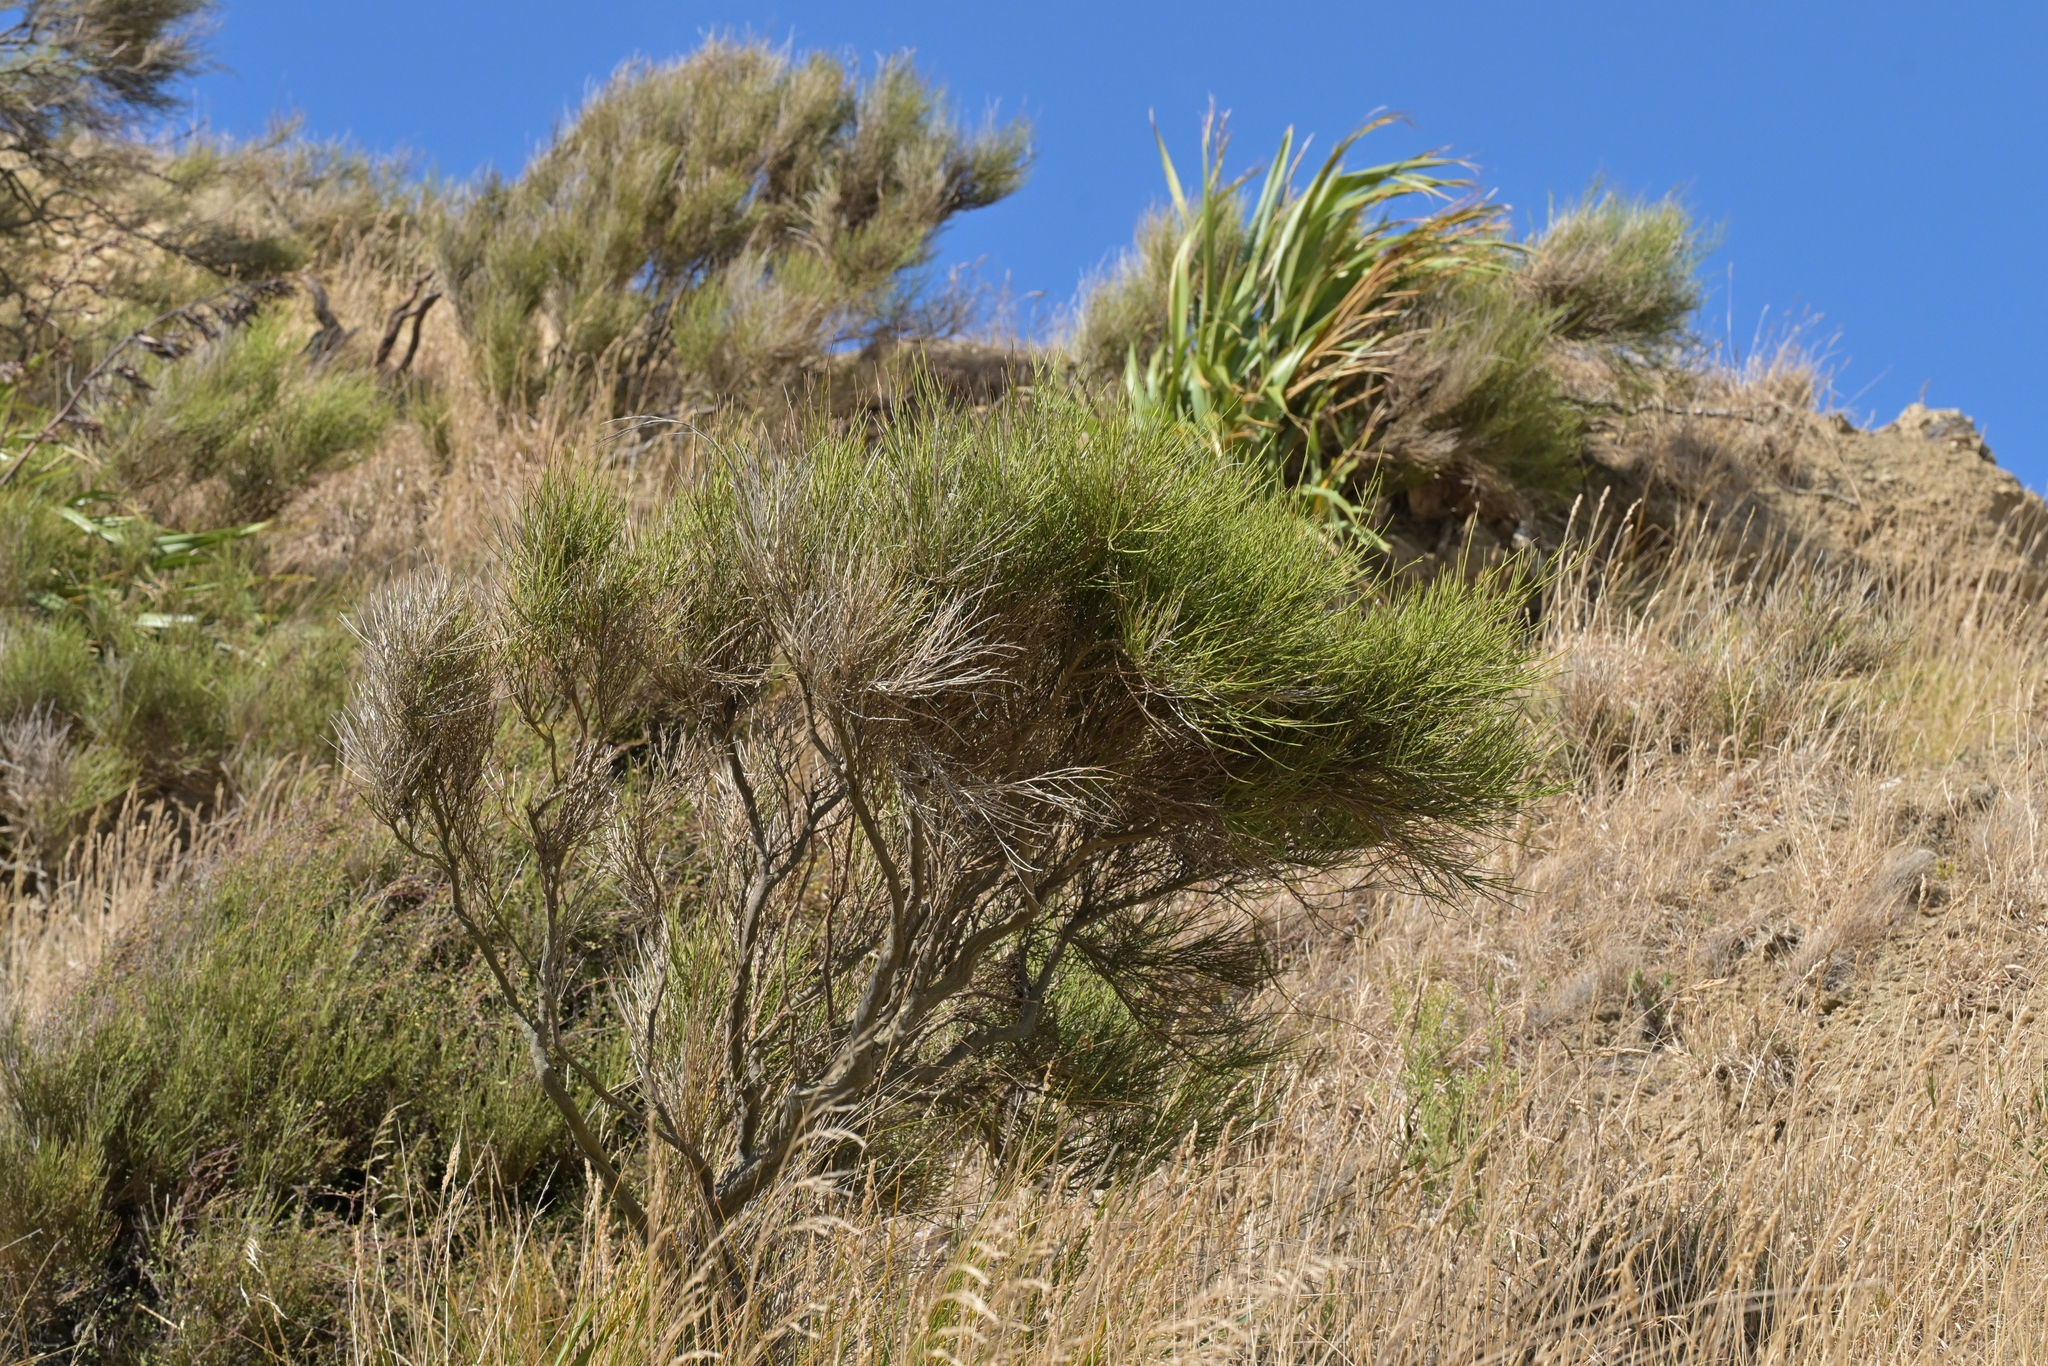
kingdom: Plantae
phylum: Tracheophyta
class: Magnoliopsida
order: Fabales
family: Fabaceae
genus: Carmichaelia
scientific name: Carmichaelia australis
